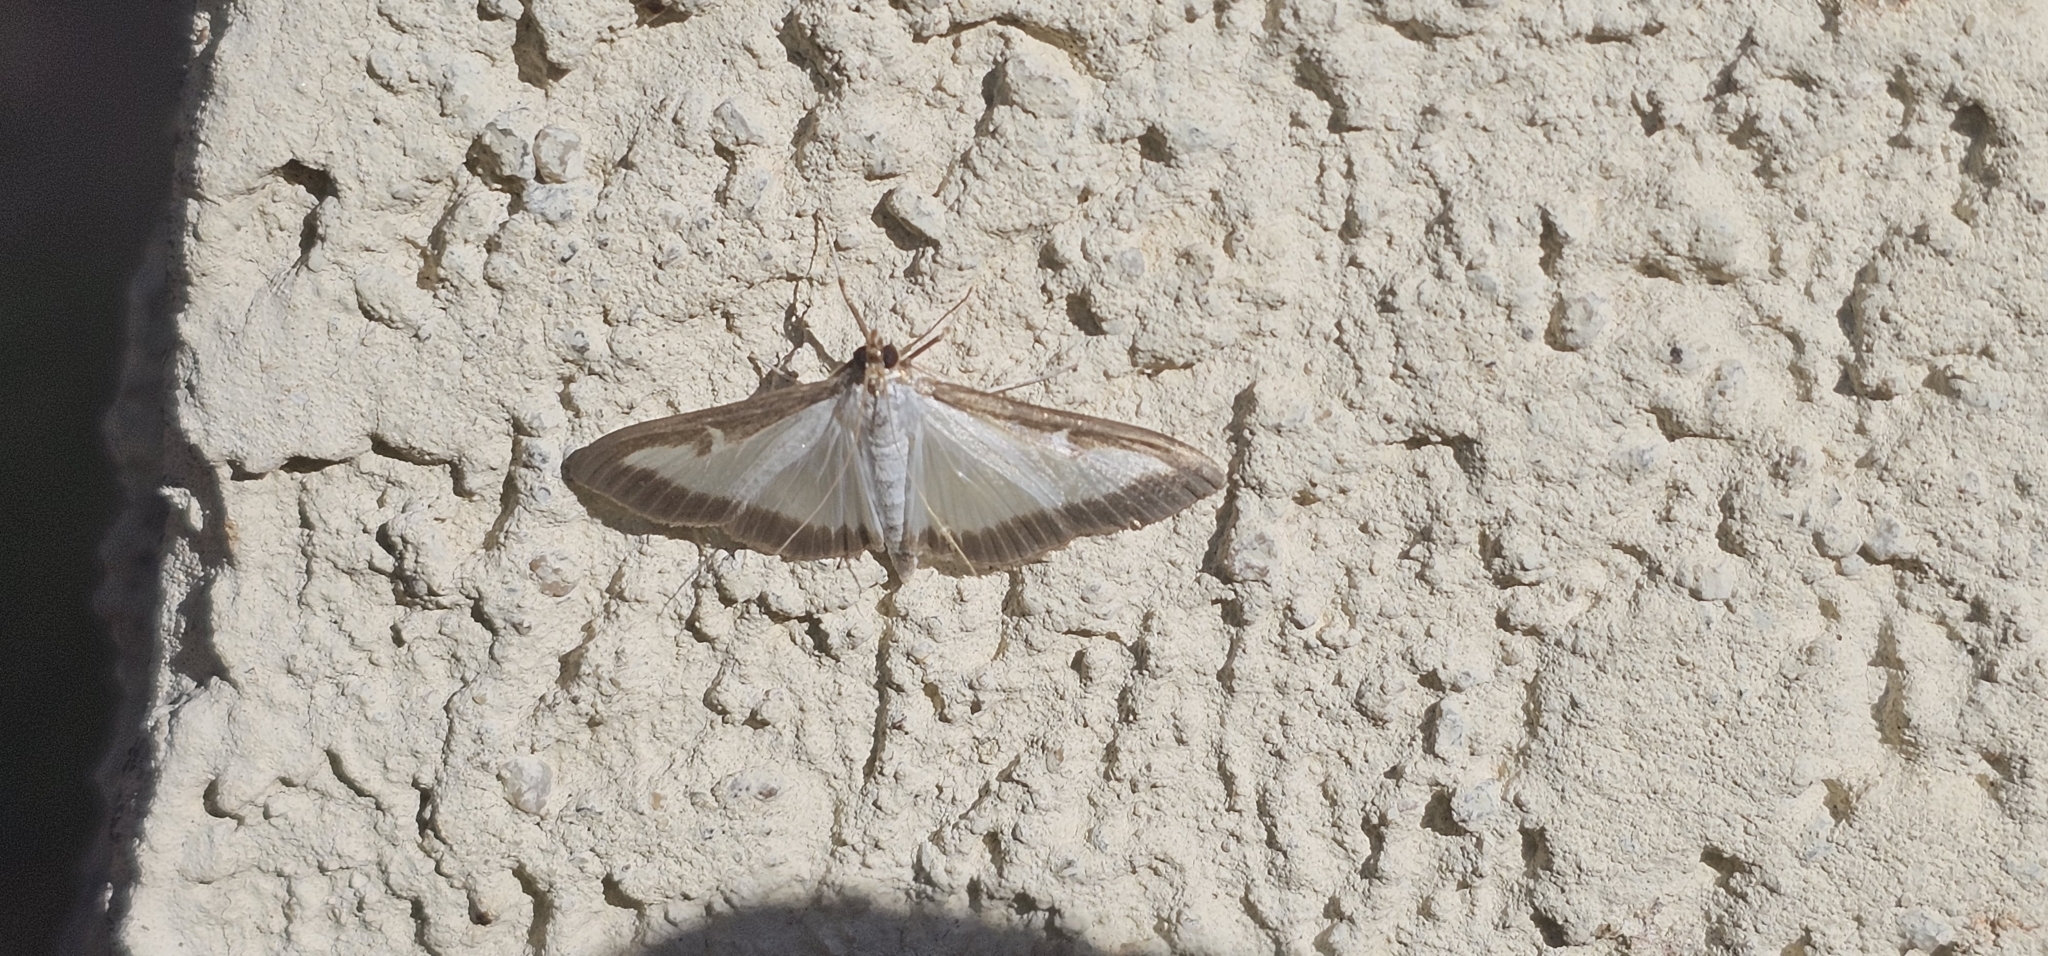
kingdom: Animalia
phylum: Arthropoda
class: Insecta
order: Lepidoptera
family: Crambidae
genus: Cydalima
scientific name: Cydalima perspectalis
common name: Box tree moth
